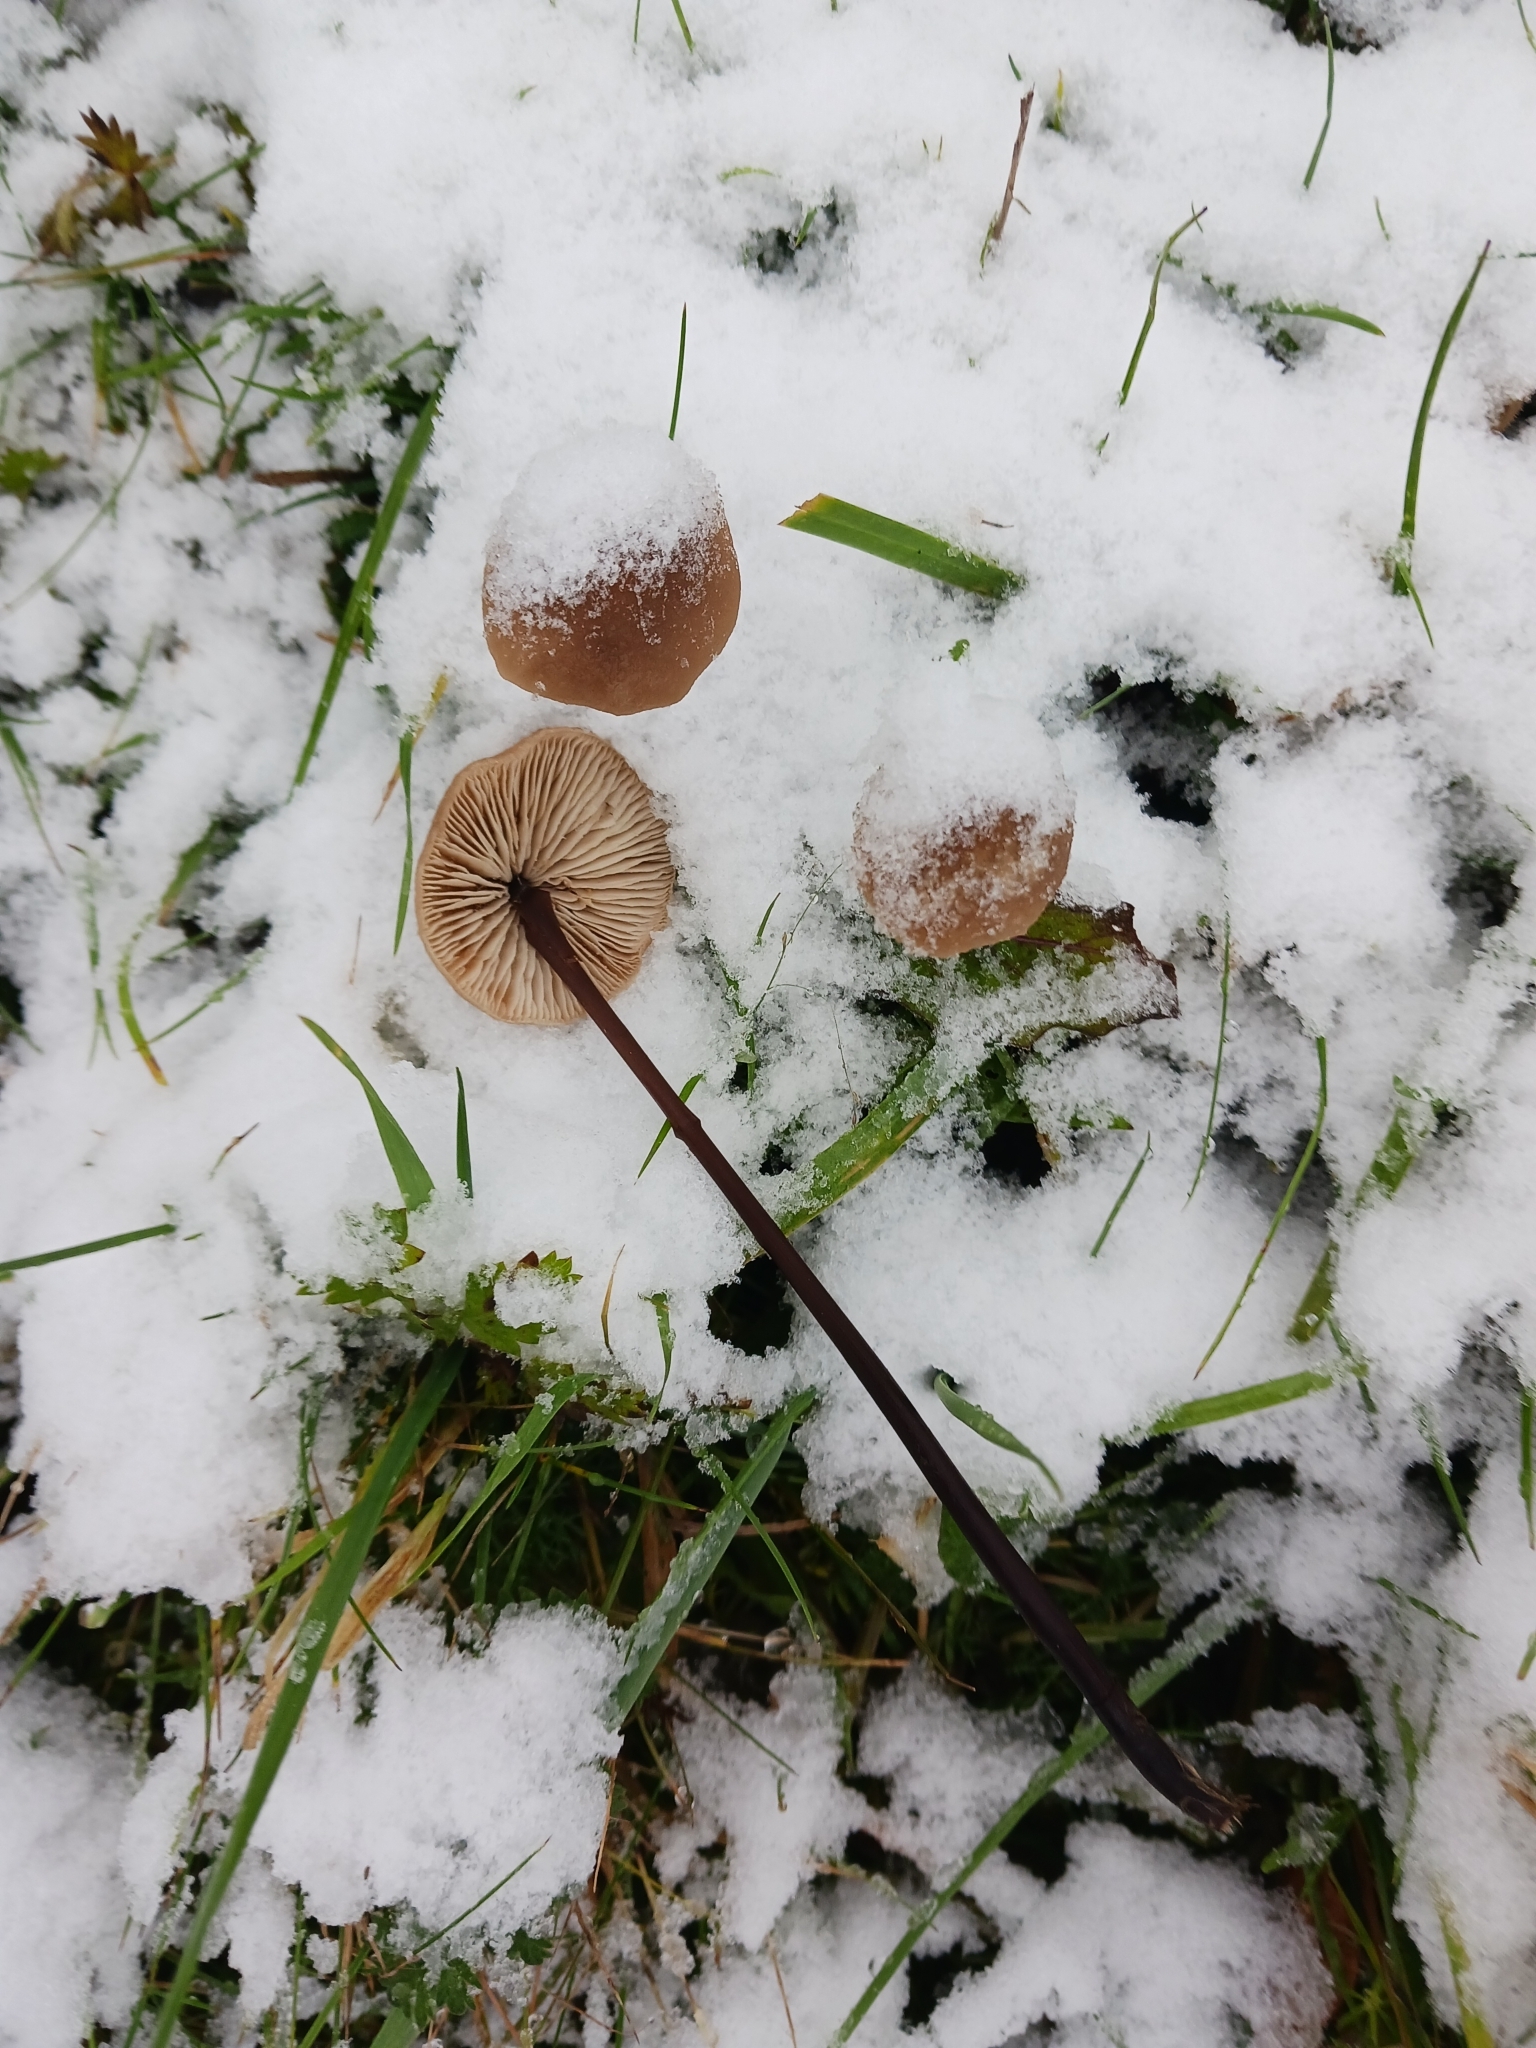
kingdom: Fungi
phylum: Basidiomycota
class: Agaricomycetes
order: Agaricales
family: Omphalotaceae
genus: Mycetinis
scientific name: Mycetinis alliaceus
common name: Garlic parachute
